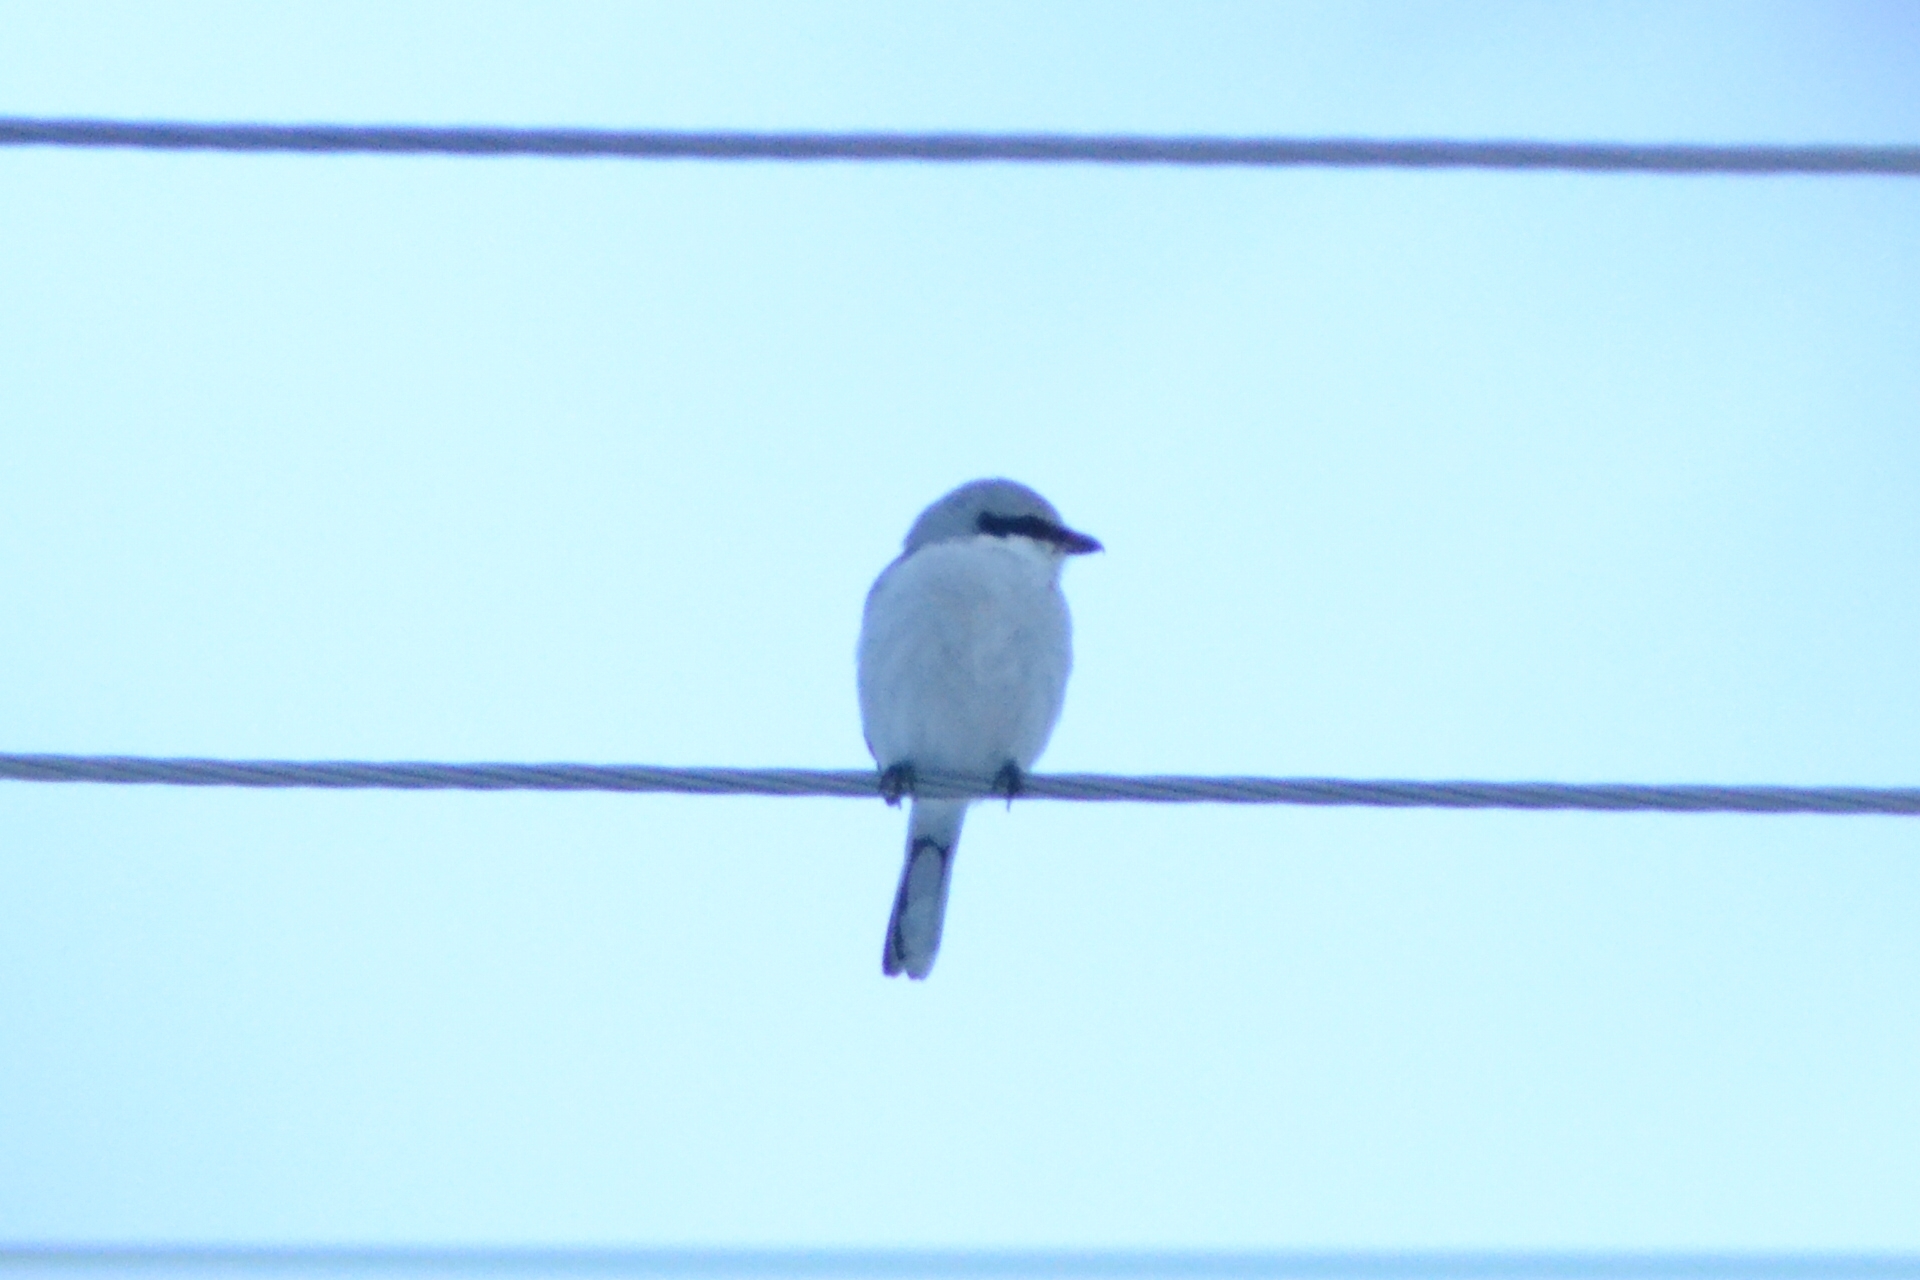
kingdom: Animalia
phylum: Chordata
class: Aves
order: Passeriformes
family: Laniidae
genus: Lanius
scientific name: Lanius excubitor
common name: Great grey shrike
